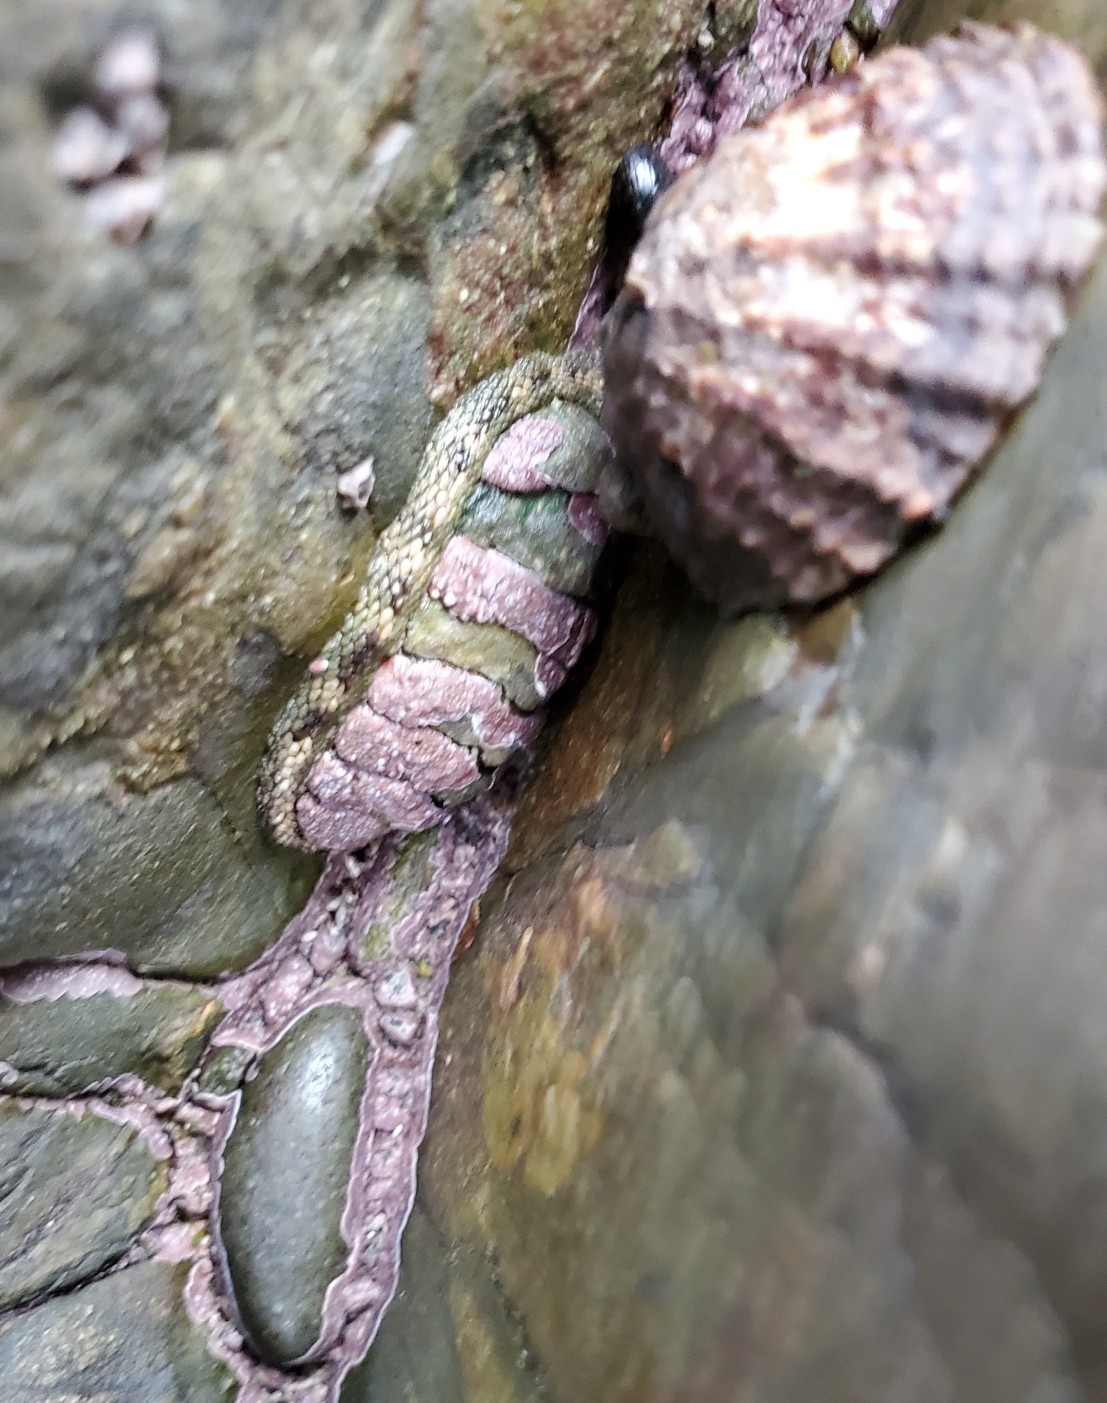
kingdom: Animalia
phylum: Mollusca
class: Polyplacophora
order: Chitonida
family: Chitonidae
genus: Sypharochiton
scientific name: Sypharochiton pelliserpentis
